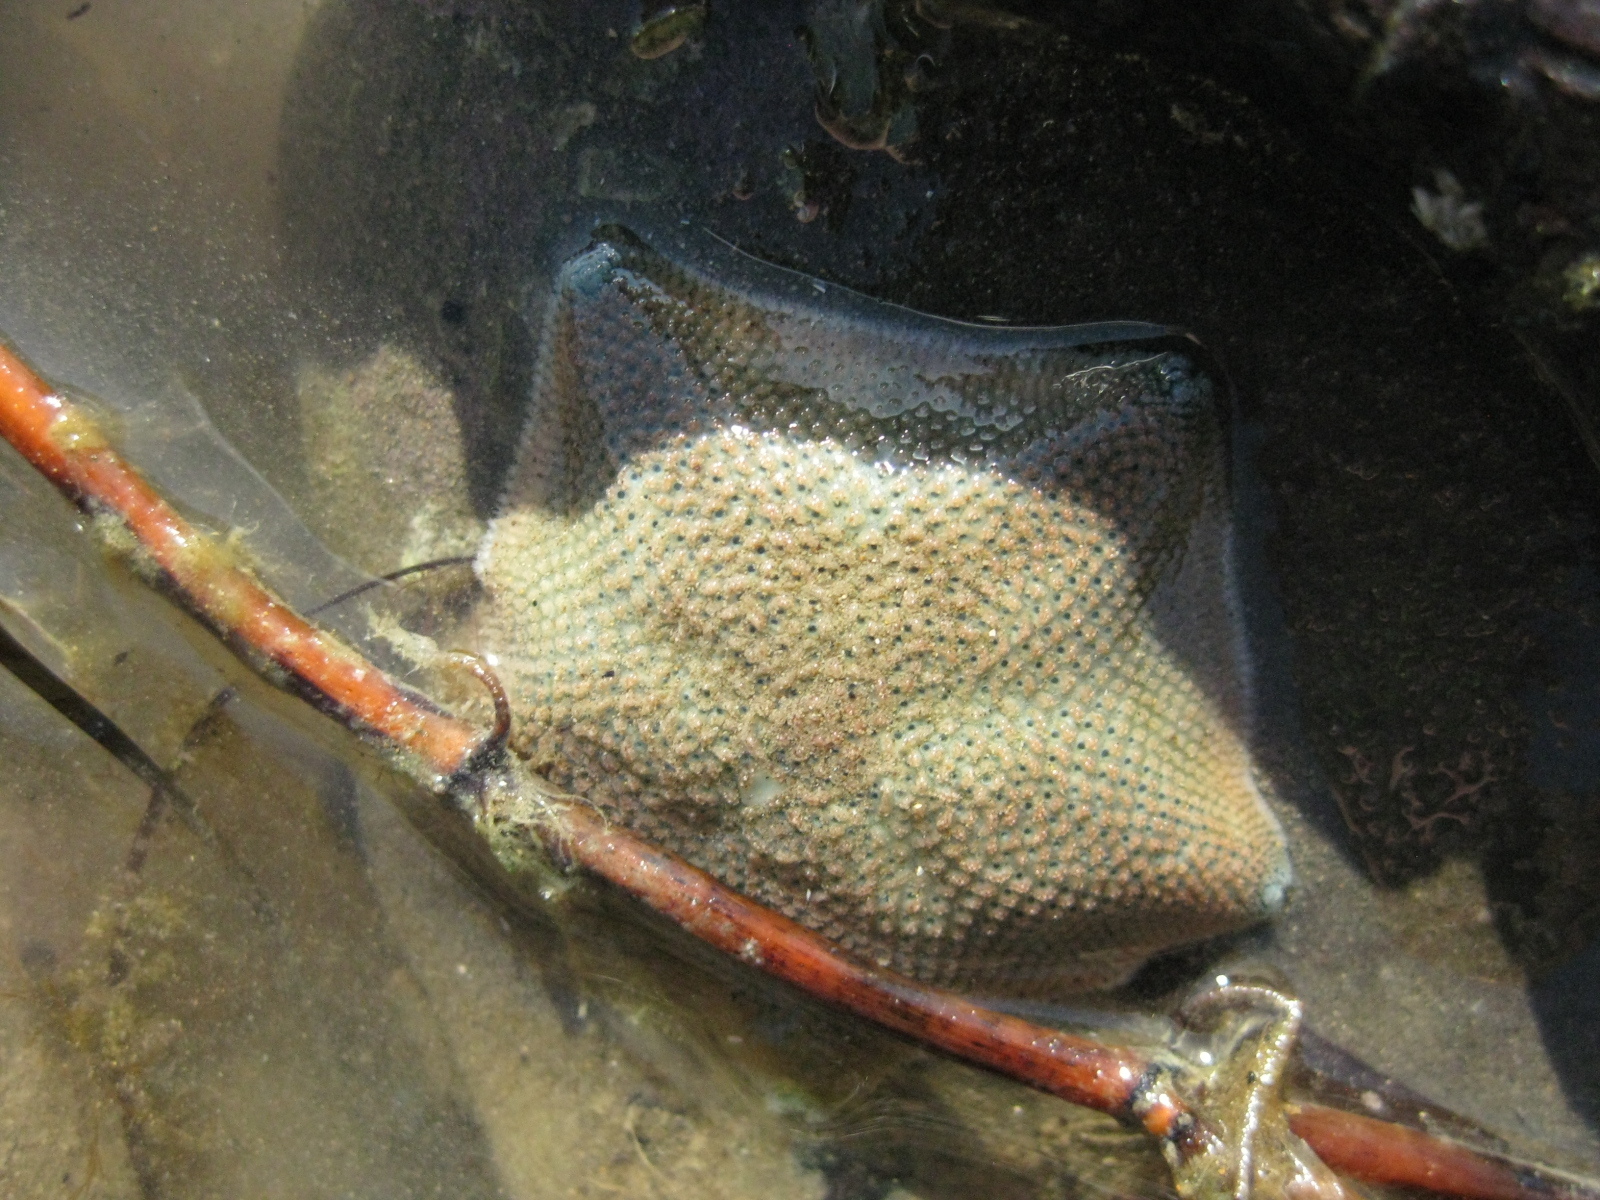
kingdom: Animalia
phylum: Echinodermata
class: Asteroidea
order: Valvatida
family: Asterinidae
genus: Patiriella
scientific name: Patiriella regularis
